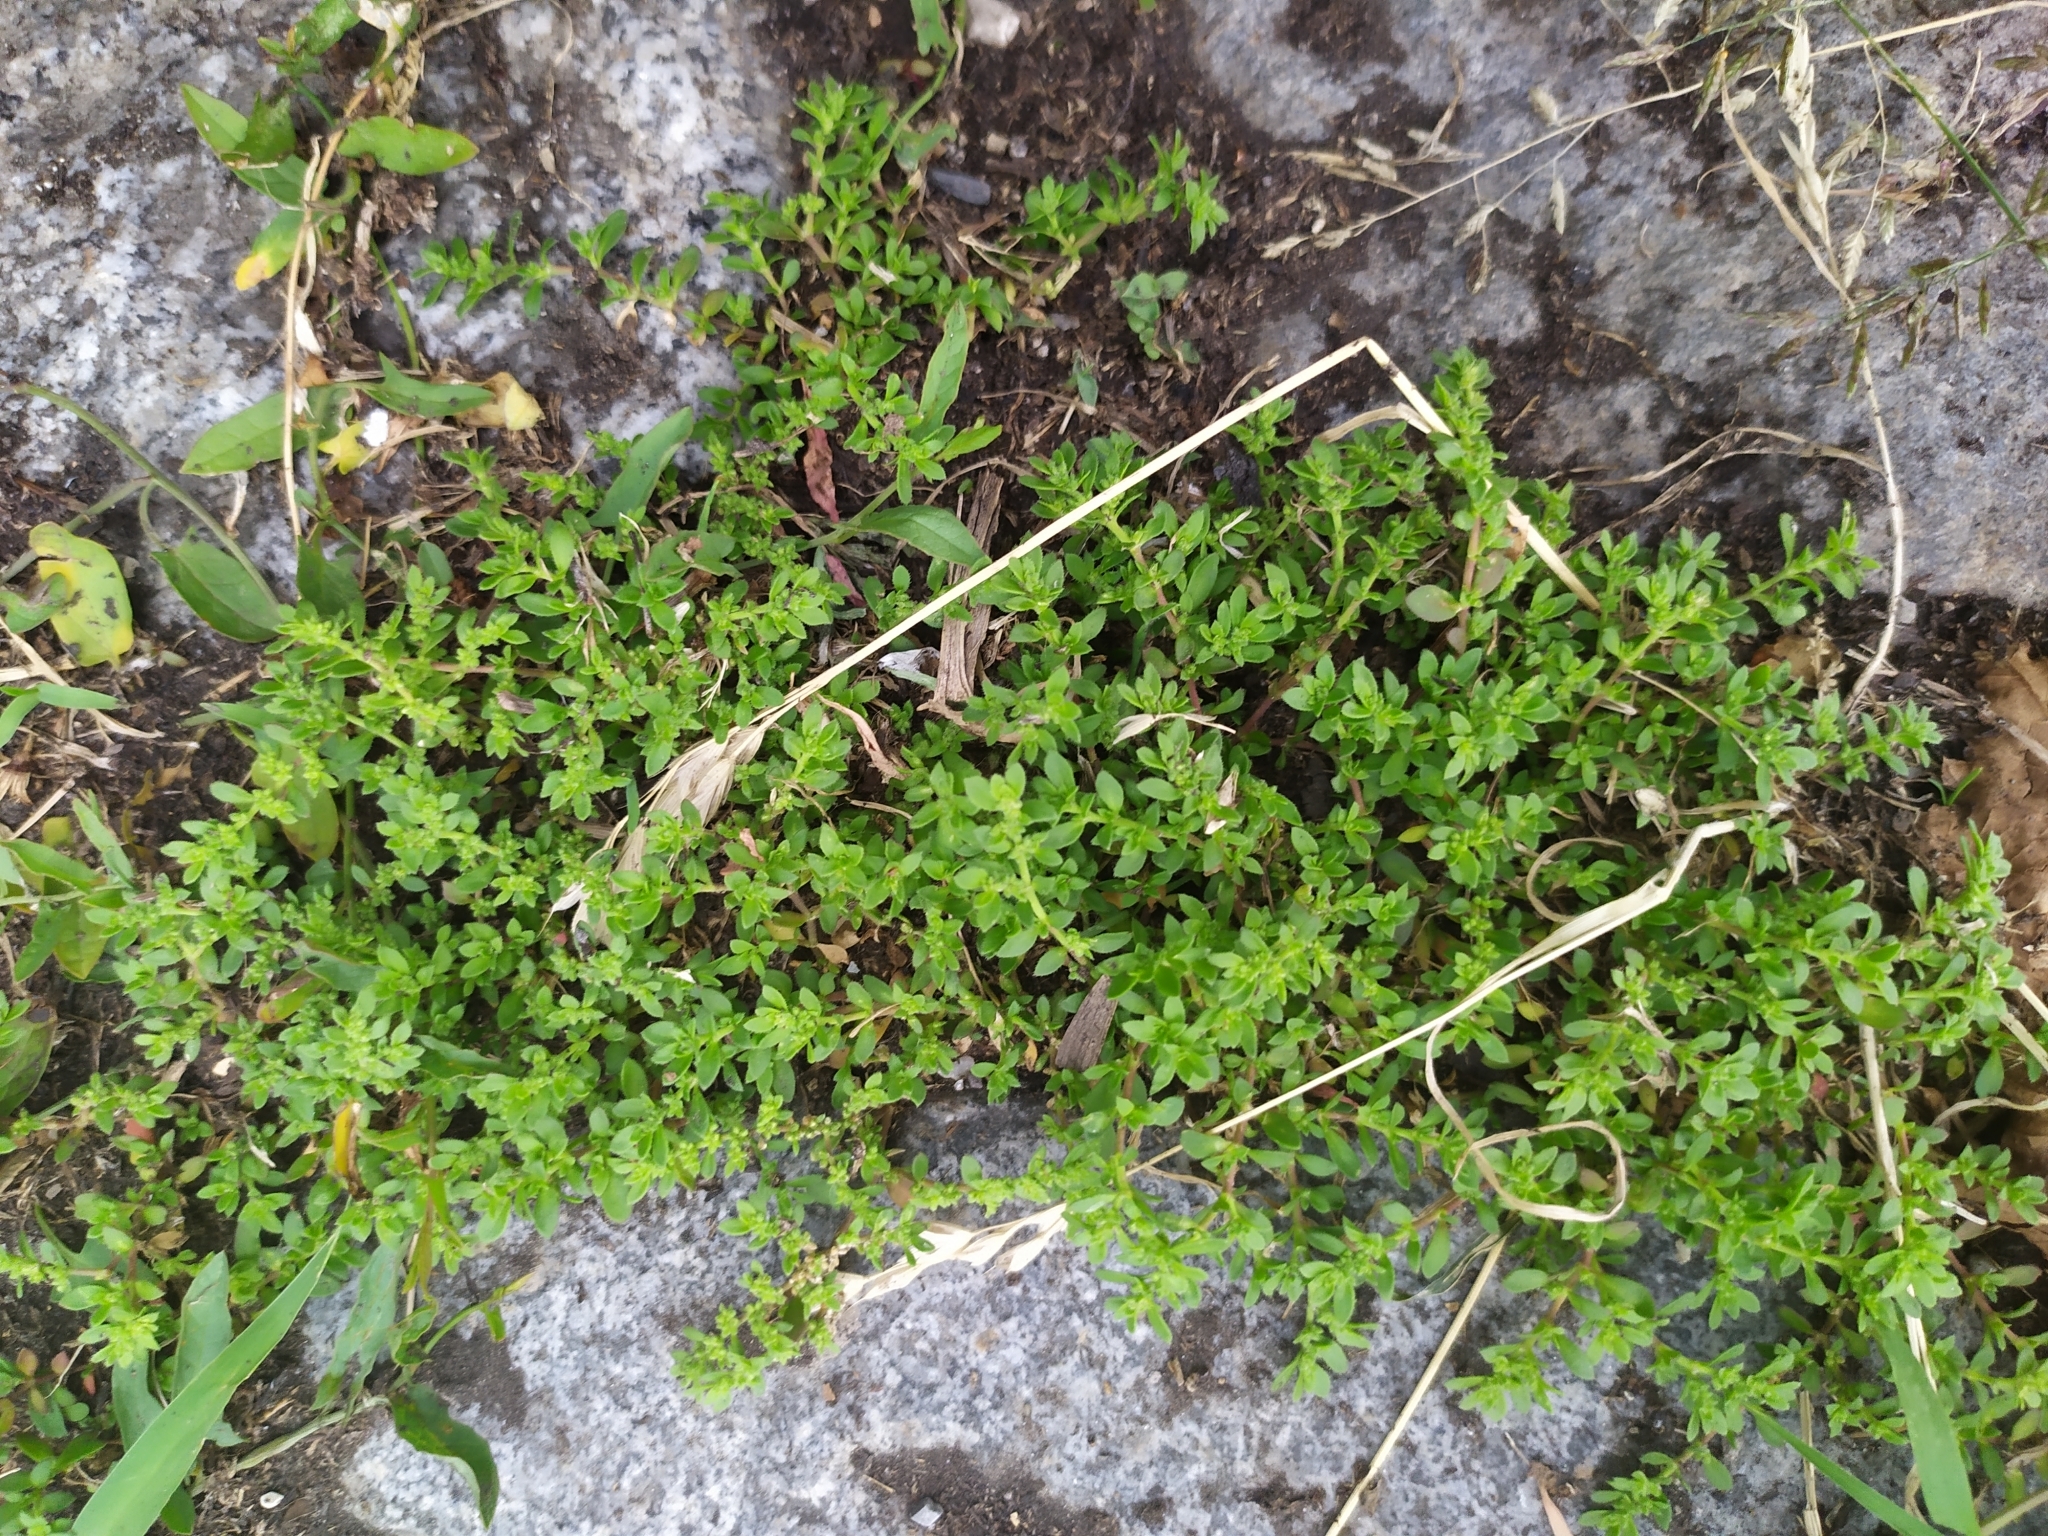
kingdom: Plantae
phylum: Tracheophyta
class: Magnoliopsida
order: Caryophyllales
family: Caryophyllaceae
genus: Herniaria
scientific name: Herniaria hirsuta
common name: Hairy rupturewort
